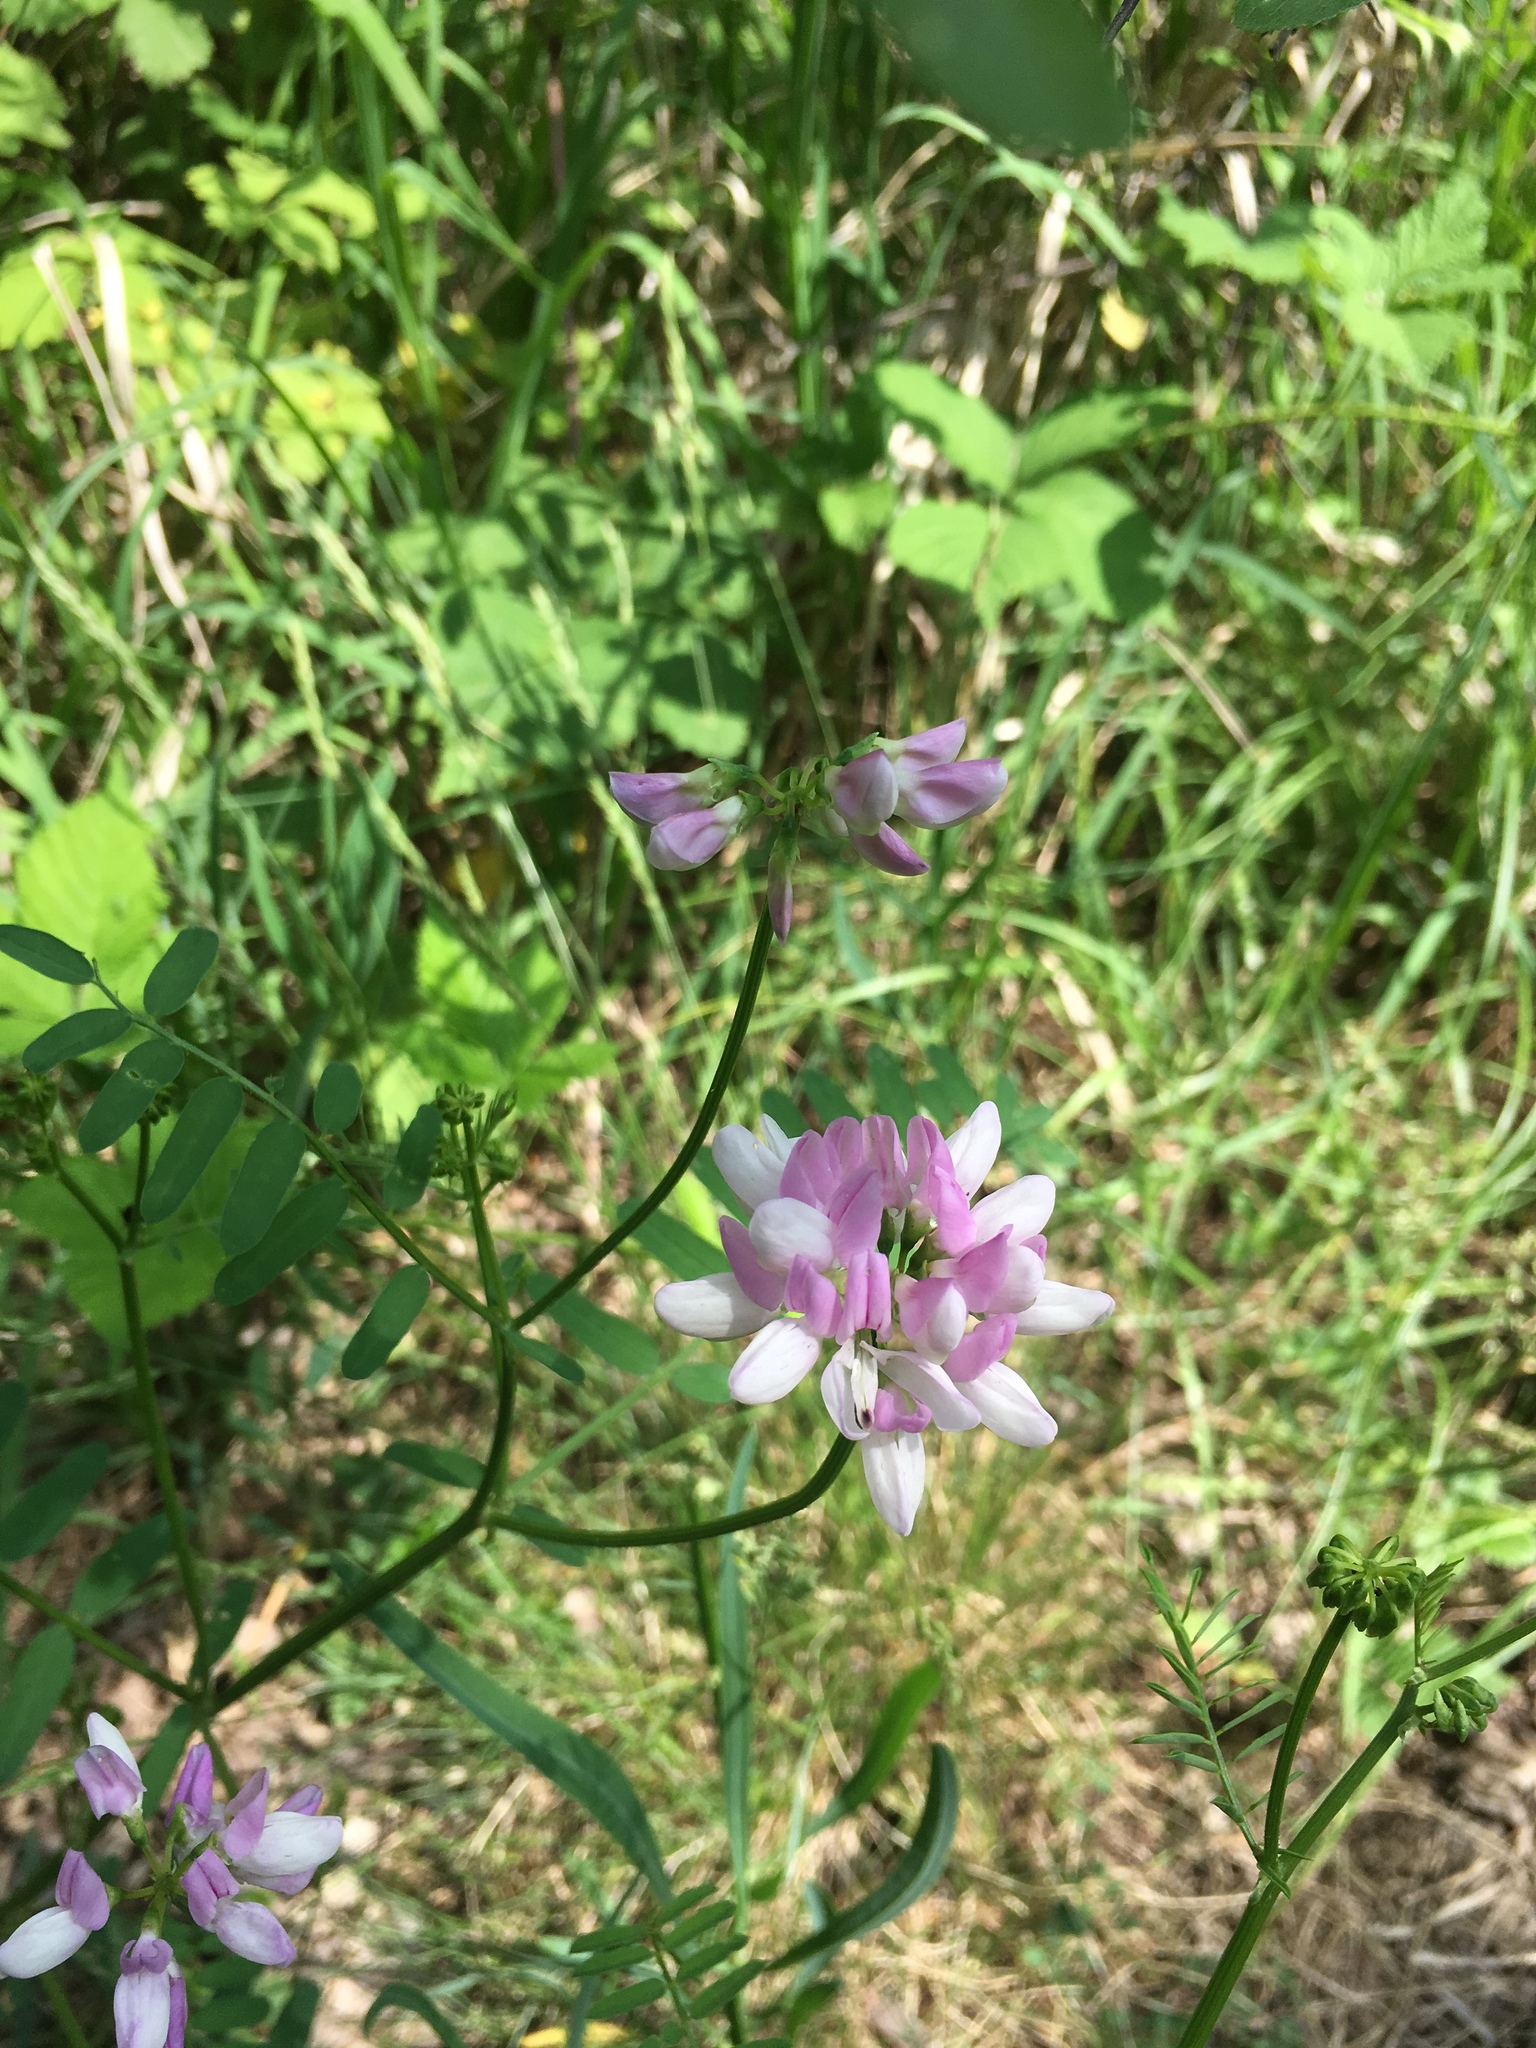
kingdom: Plantae
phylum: Tracheophyta
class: Magnoliopsida
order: Fabales
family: Fabaceae
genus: Coronilla
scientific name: Coronilla varia
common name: Crownvetch
